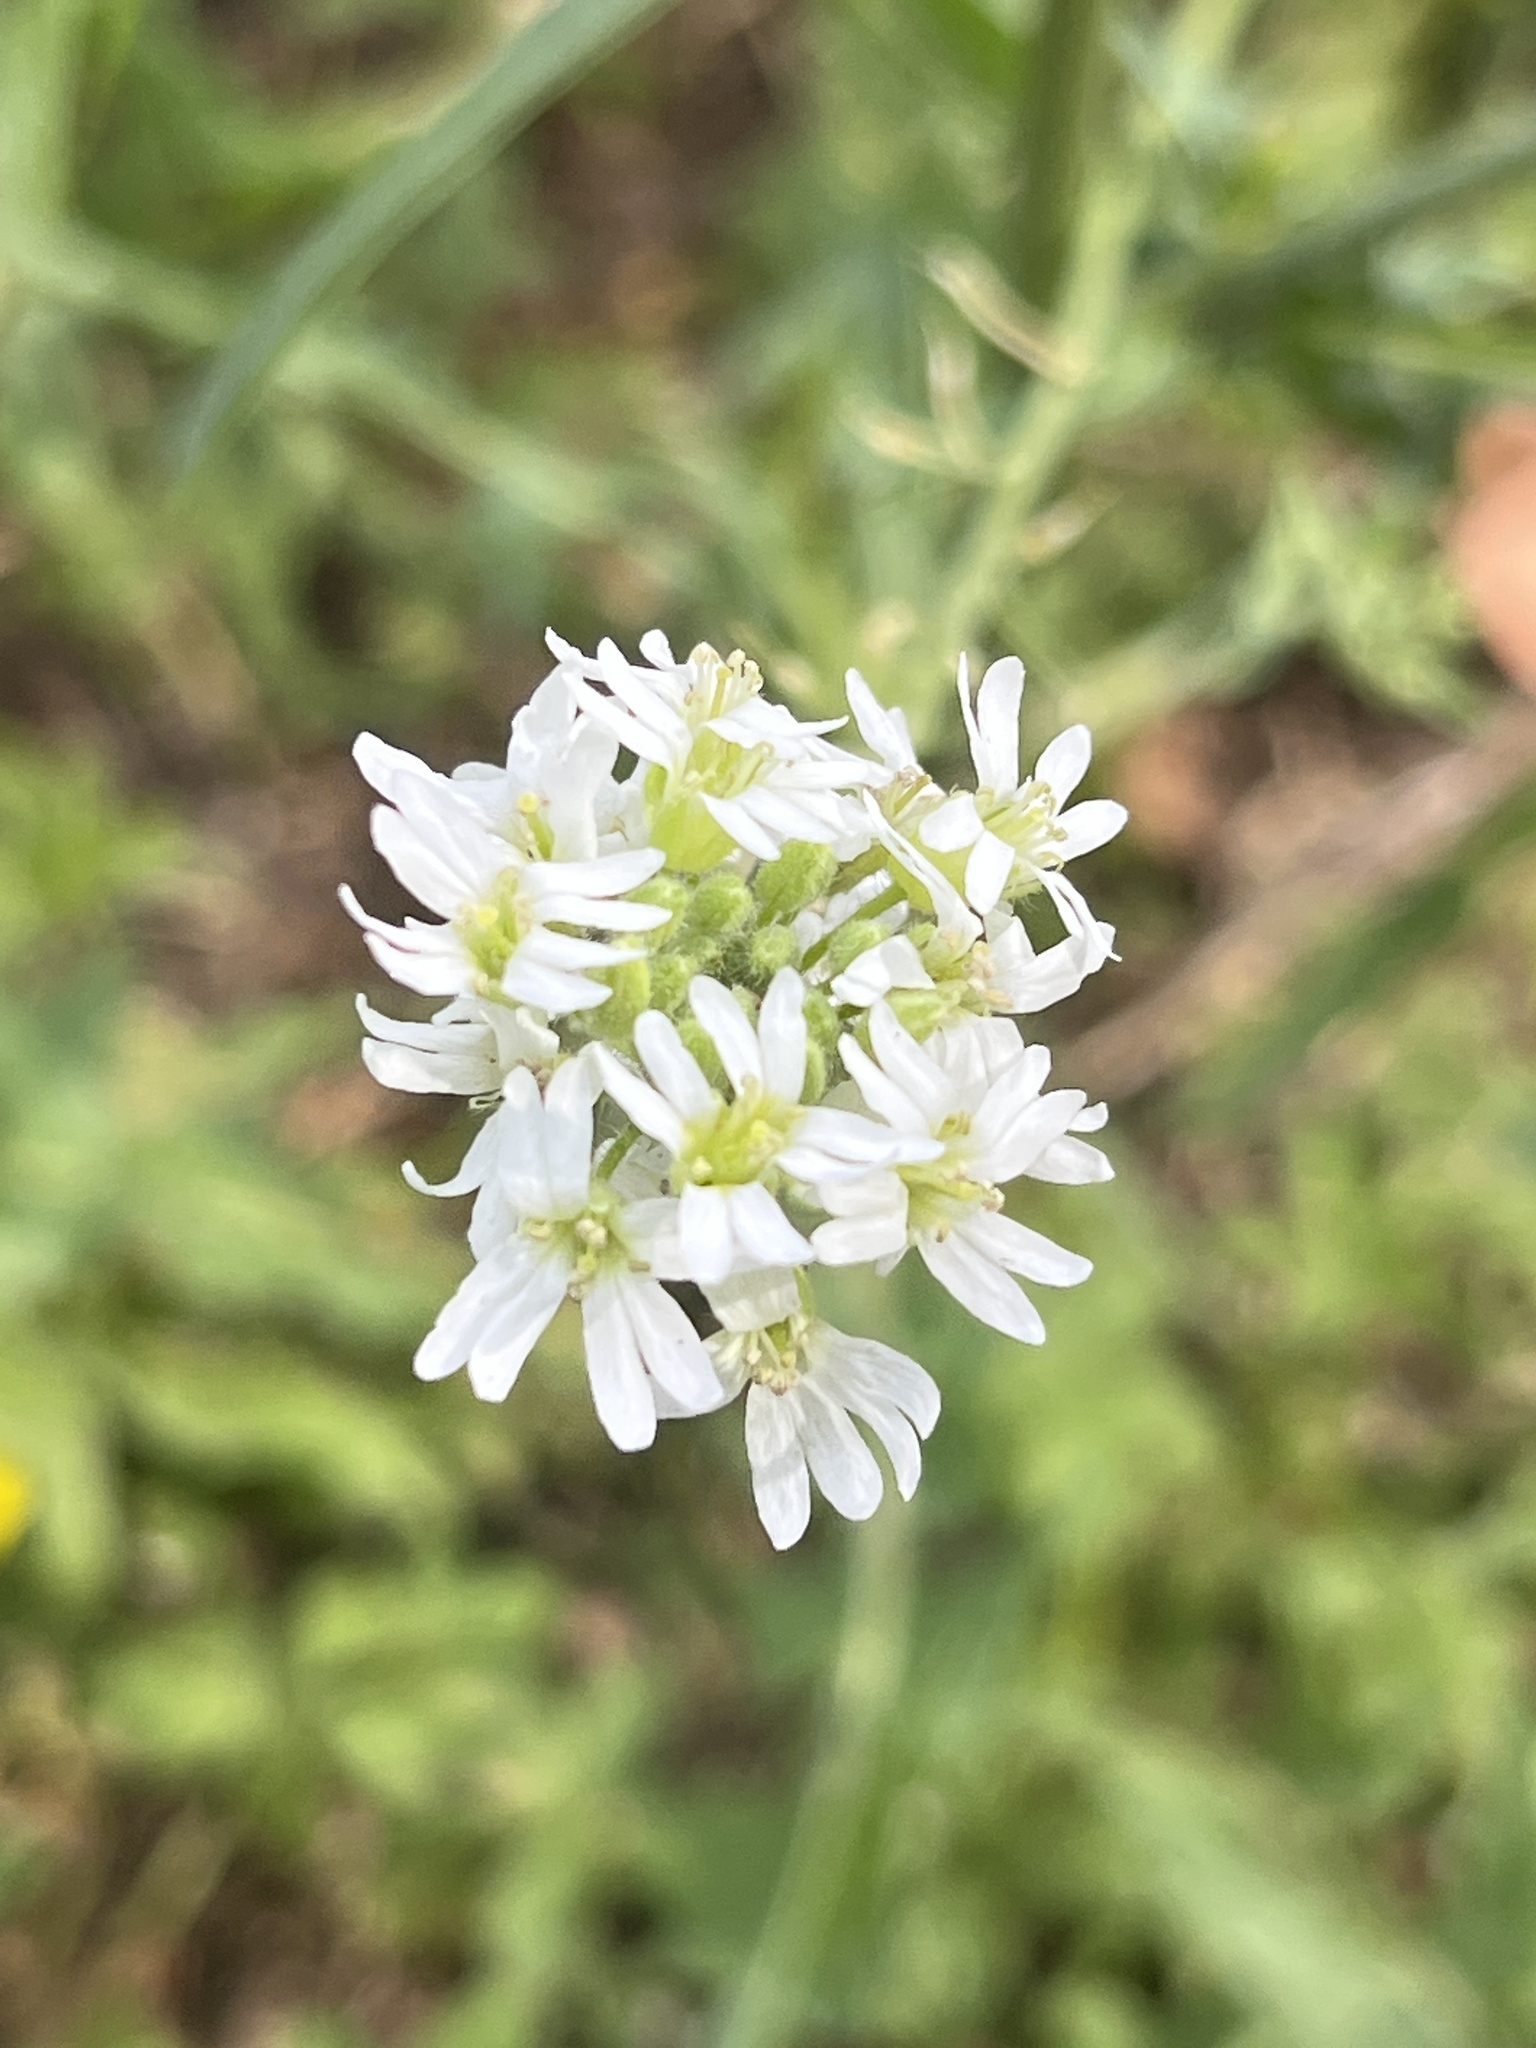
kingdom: Plantae
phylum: Tracheophyta
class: Magnoliopsida
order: Brassicales
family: Brassicaceae
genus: Berteroa
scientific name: Berteroa incana
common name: Hoary alison
